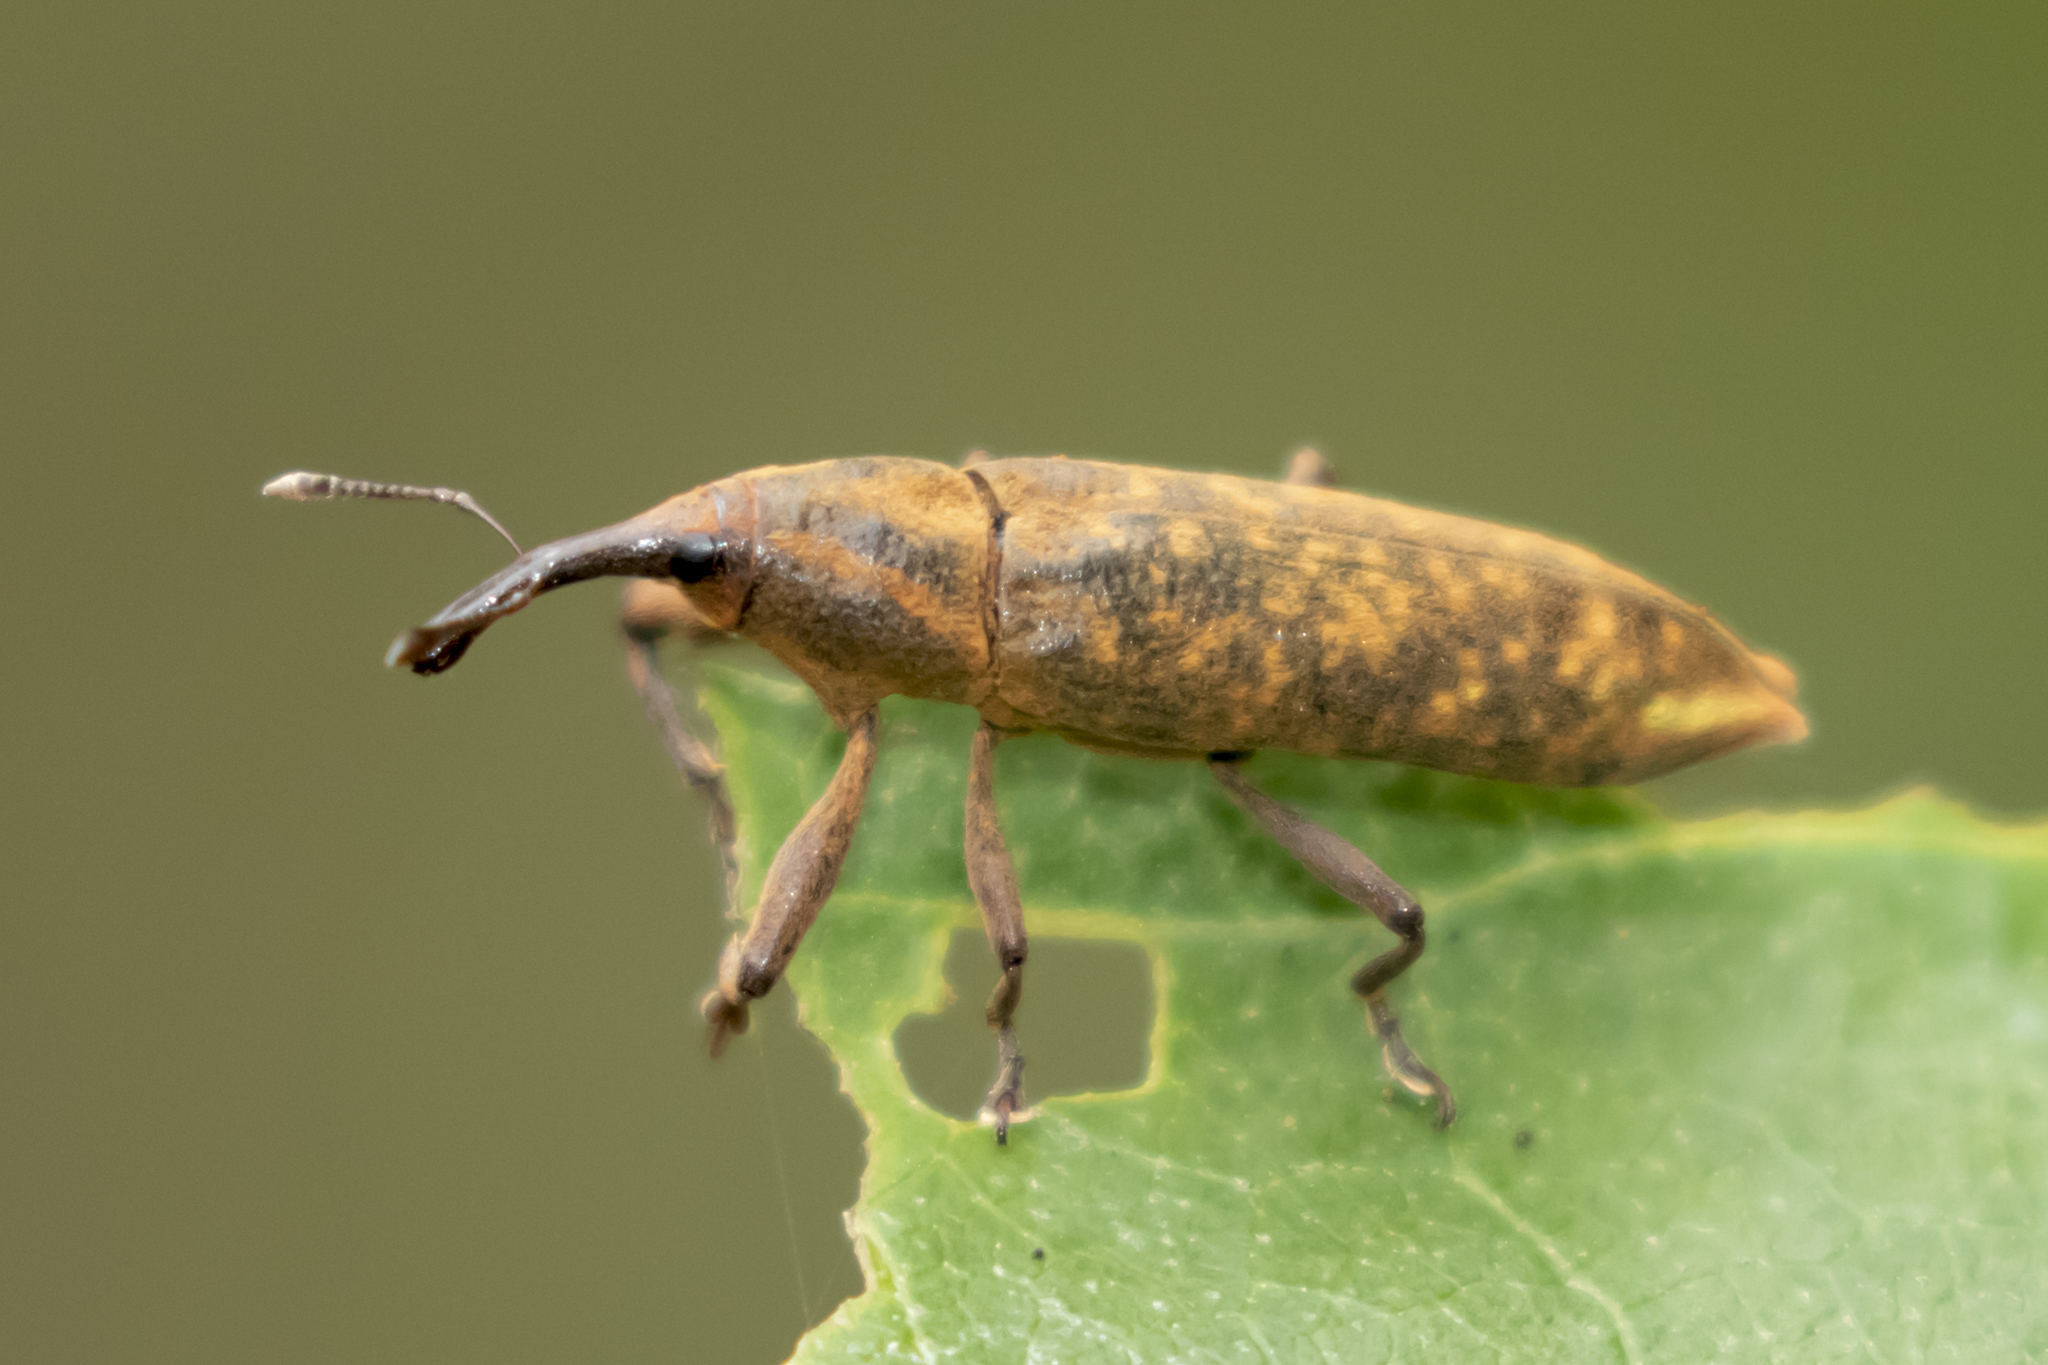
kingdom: Animalia
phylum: Arthropoda
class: Insecta
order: Coleoptera
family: Curculionidae
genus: Lixus
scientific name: Lixus
